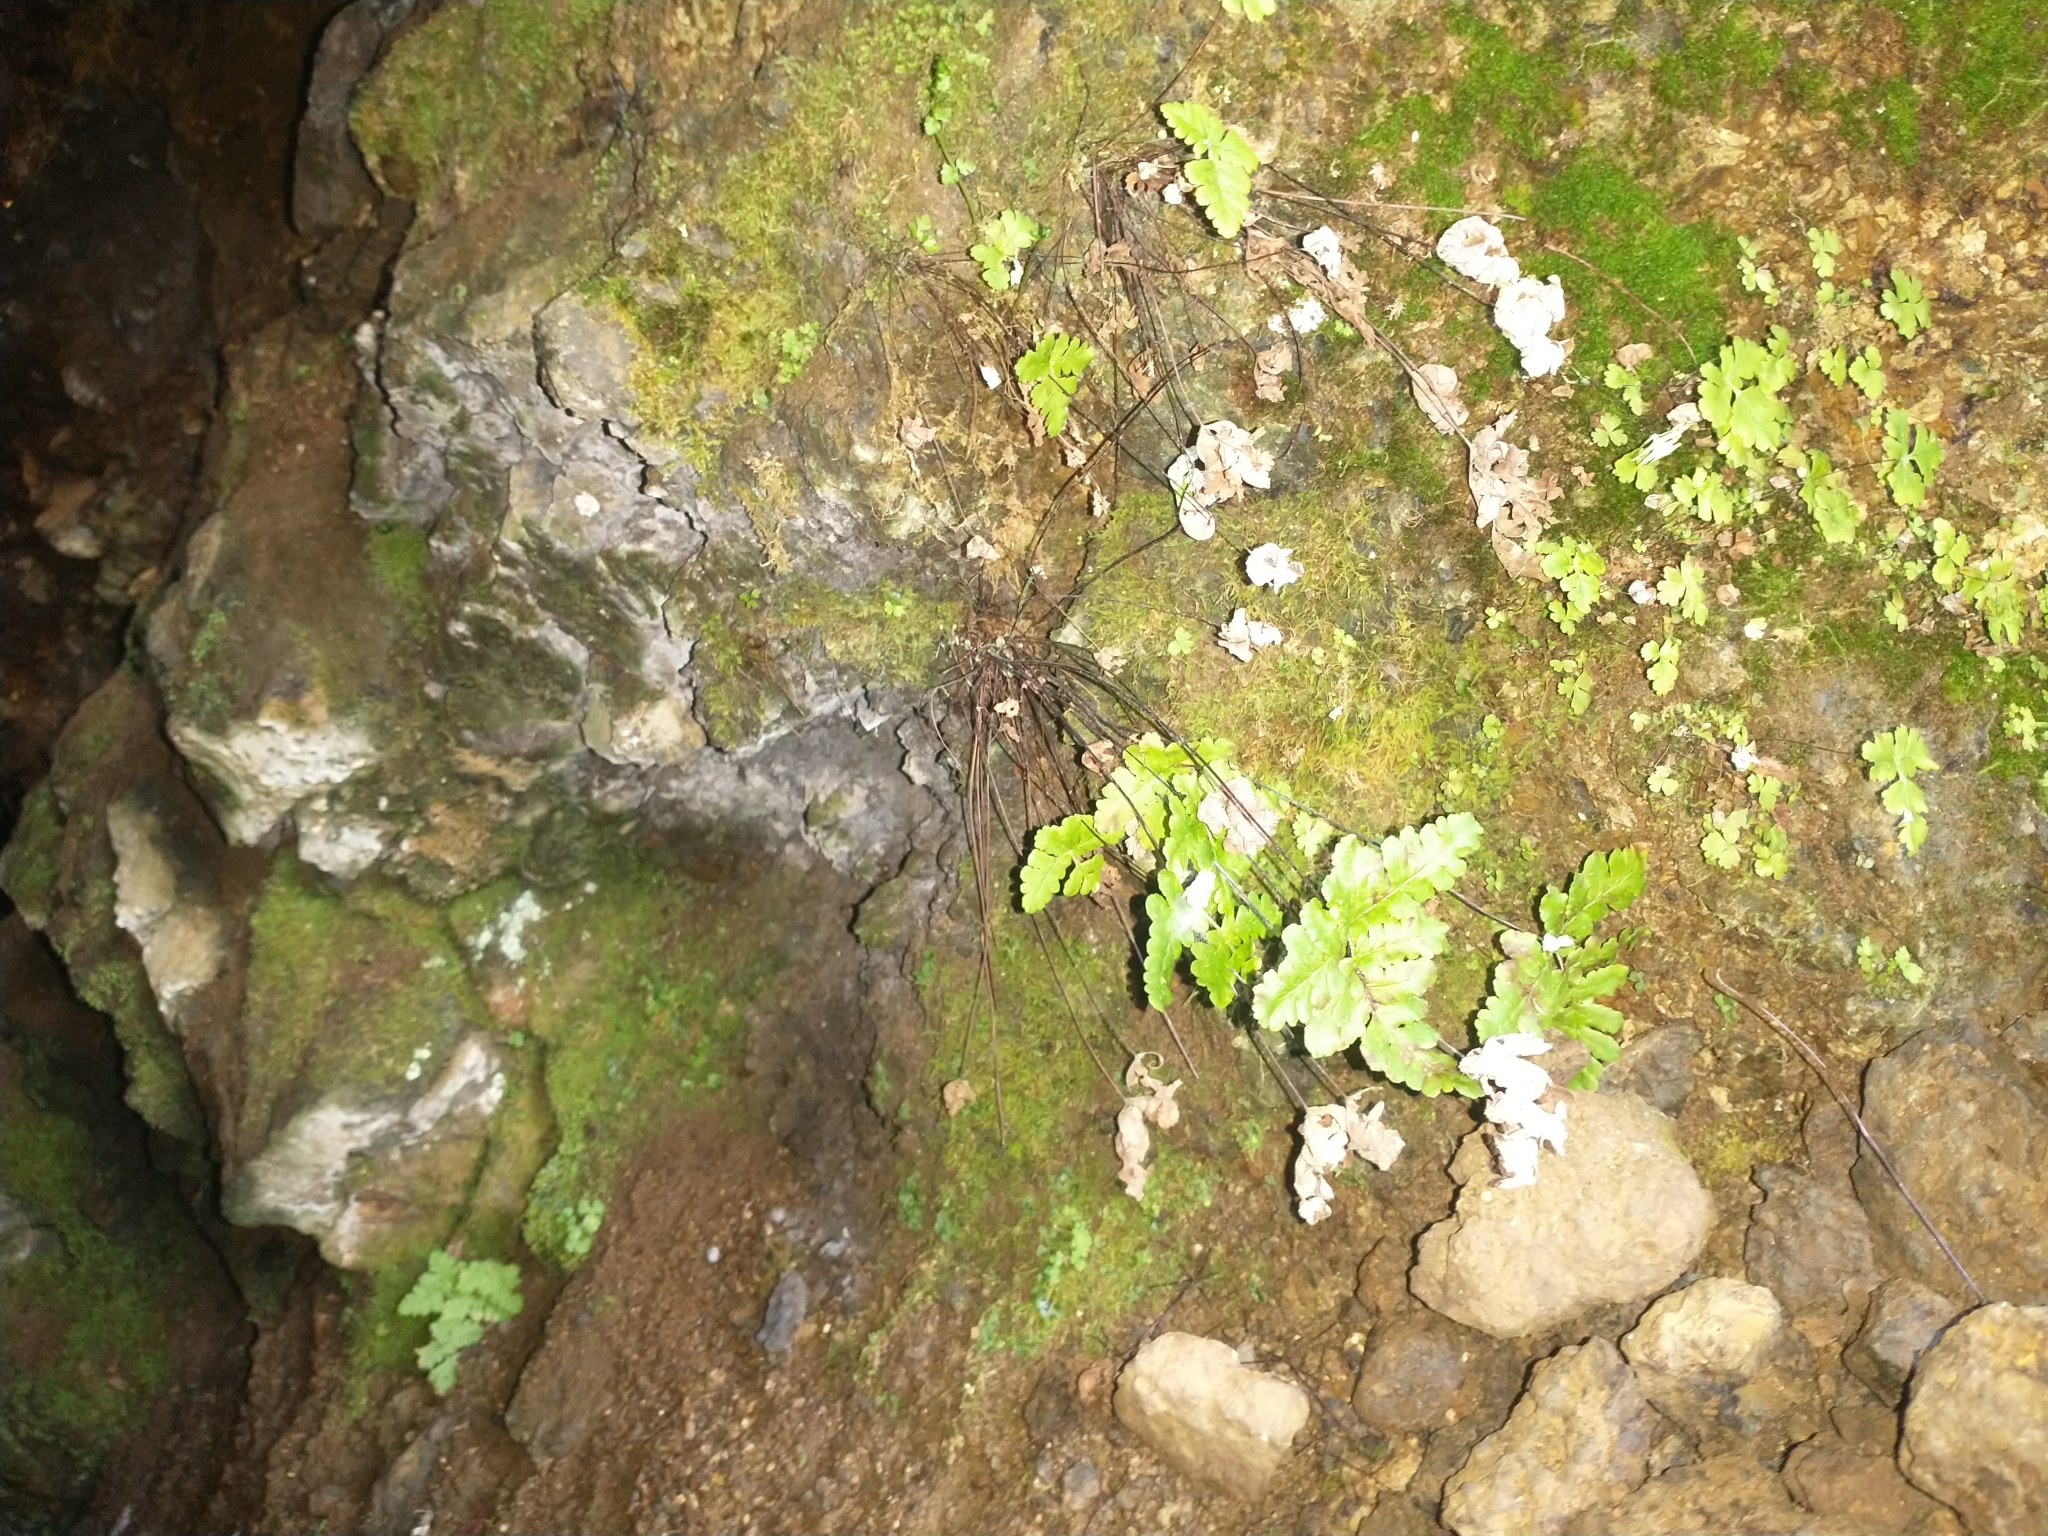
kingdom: Plantae
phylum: Tracheophyta
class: Polypodiopsida
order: Polypodiales
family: Pteridaceae
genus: Pentagramma
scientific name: Pentagramma triangularis
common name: Gold fern
